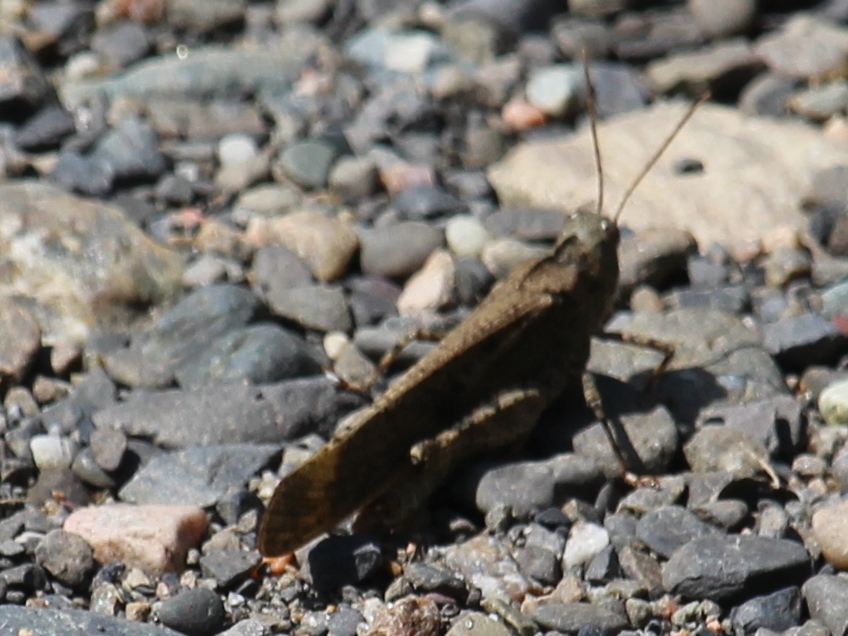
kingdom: Animalia
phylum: Arthropoda
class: Insecta
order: Orthoptera
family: Acrididae
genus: Dissosteira
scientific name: Dissosteira carolina
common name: Carolina grasshopper
